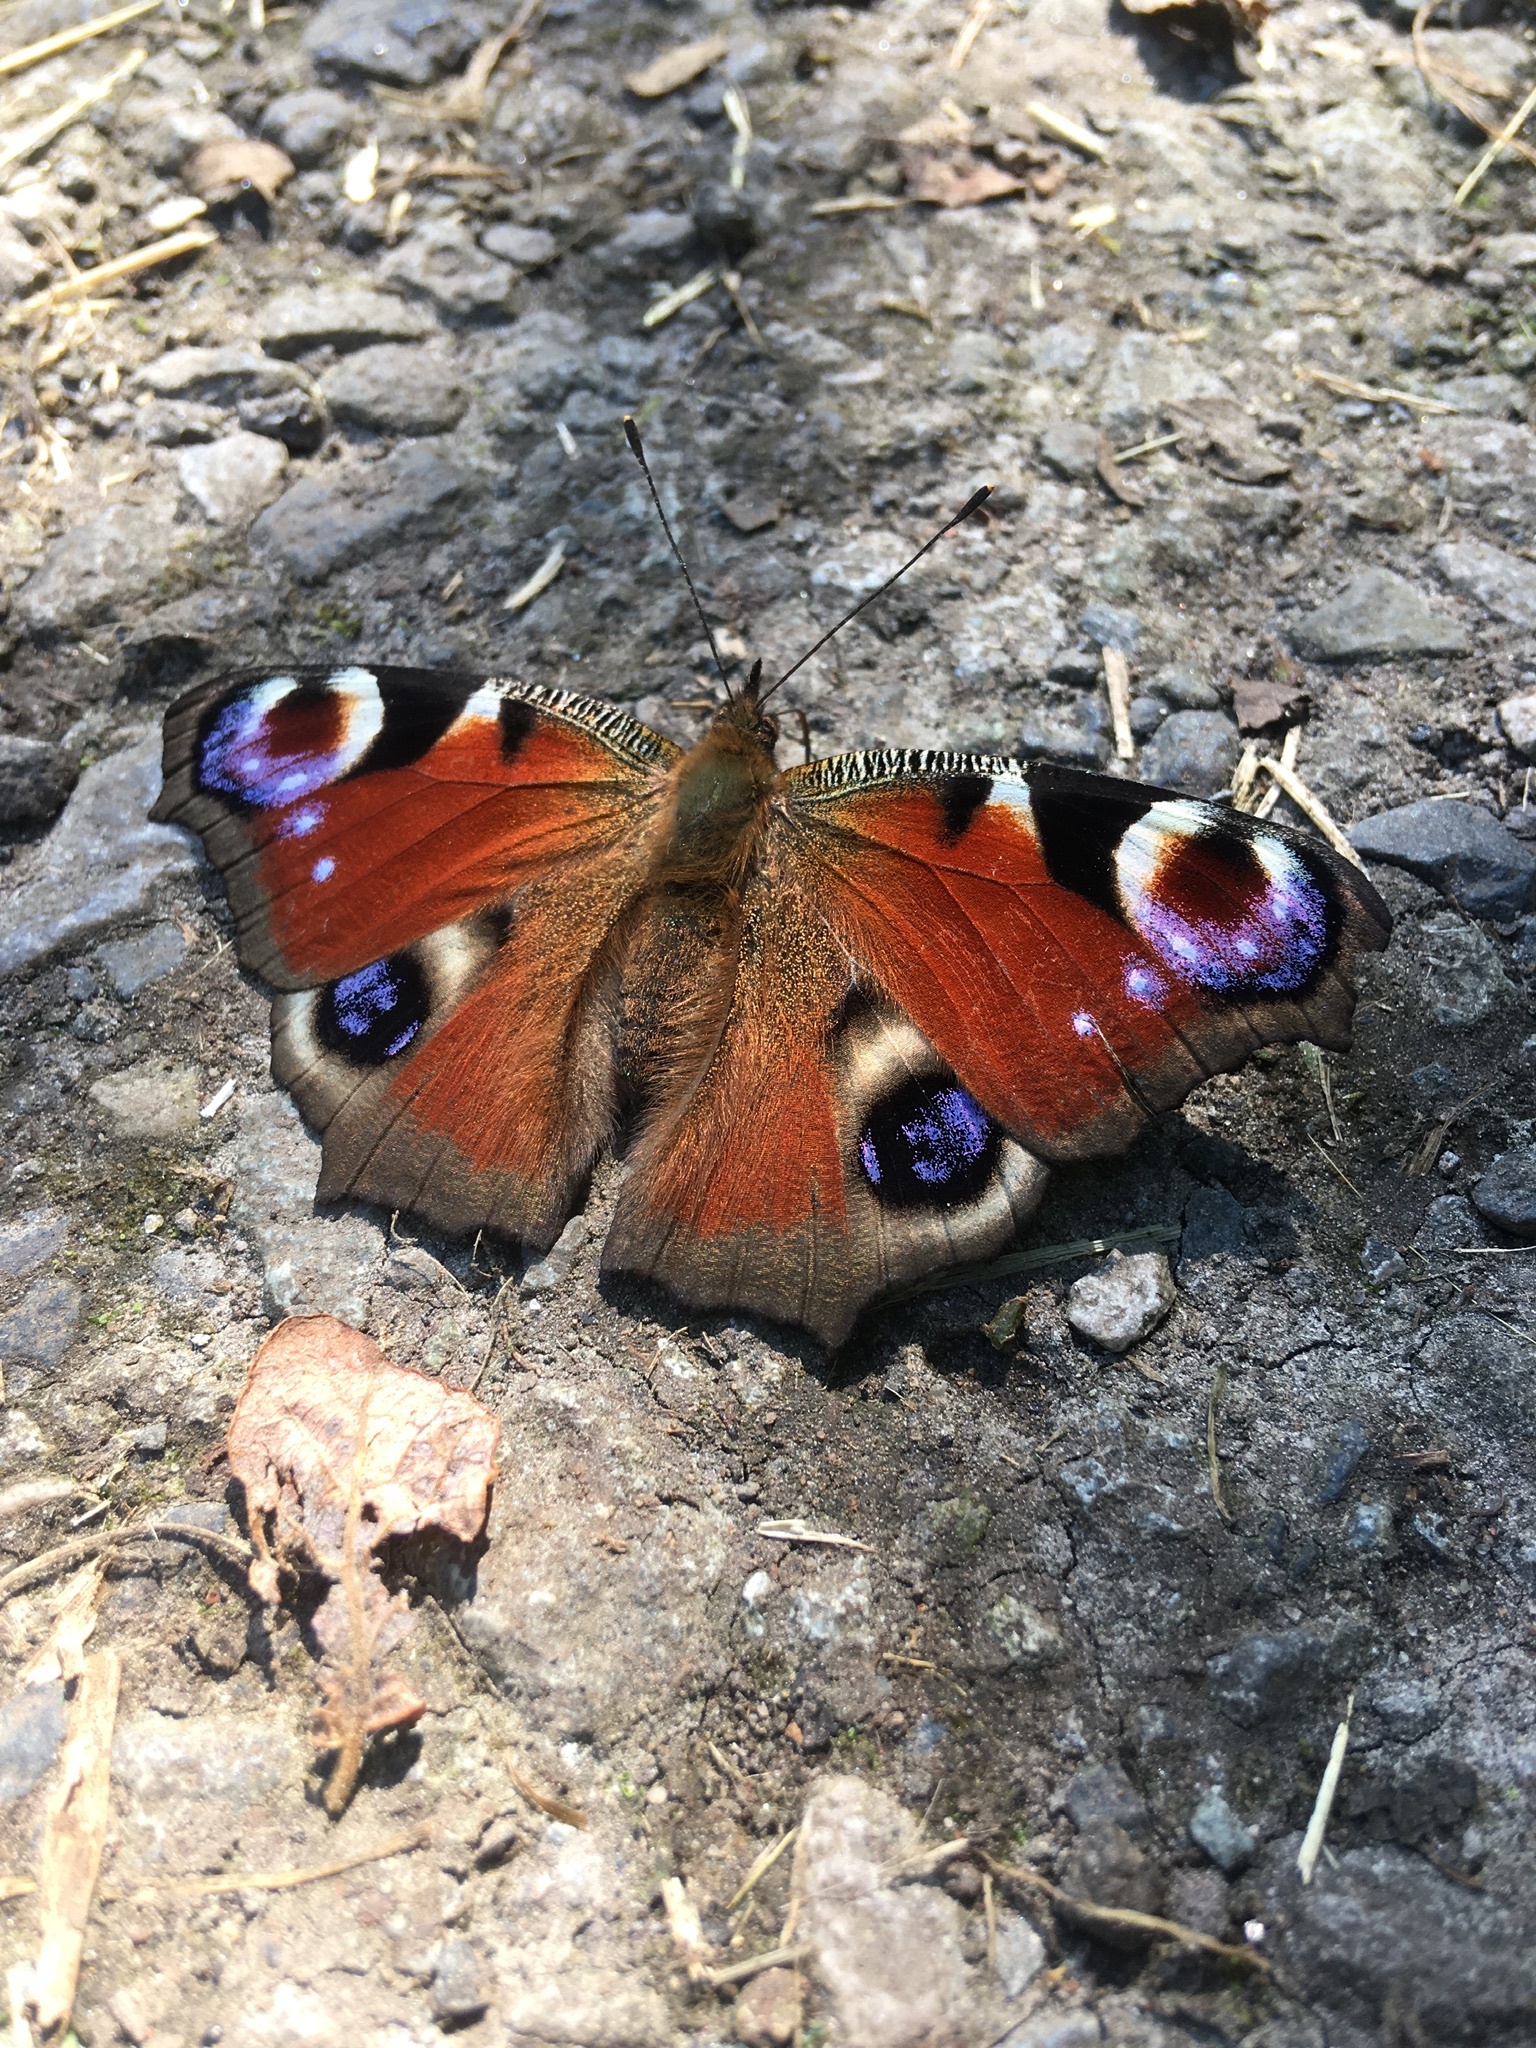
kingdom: Animalia
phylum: Arthropoda
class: Insecta
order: Lepidoptera
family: Nymphalidae
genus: Aglais
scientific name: Aglais io
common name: Peacock
